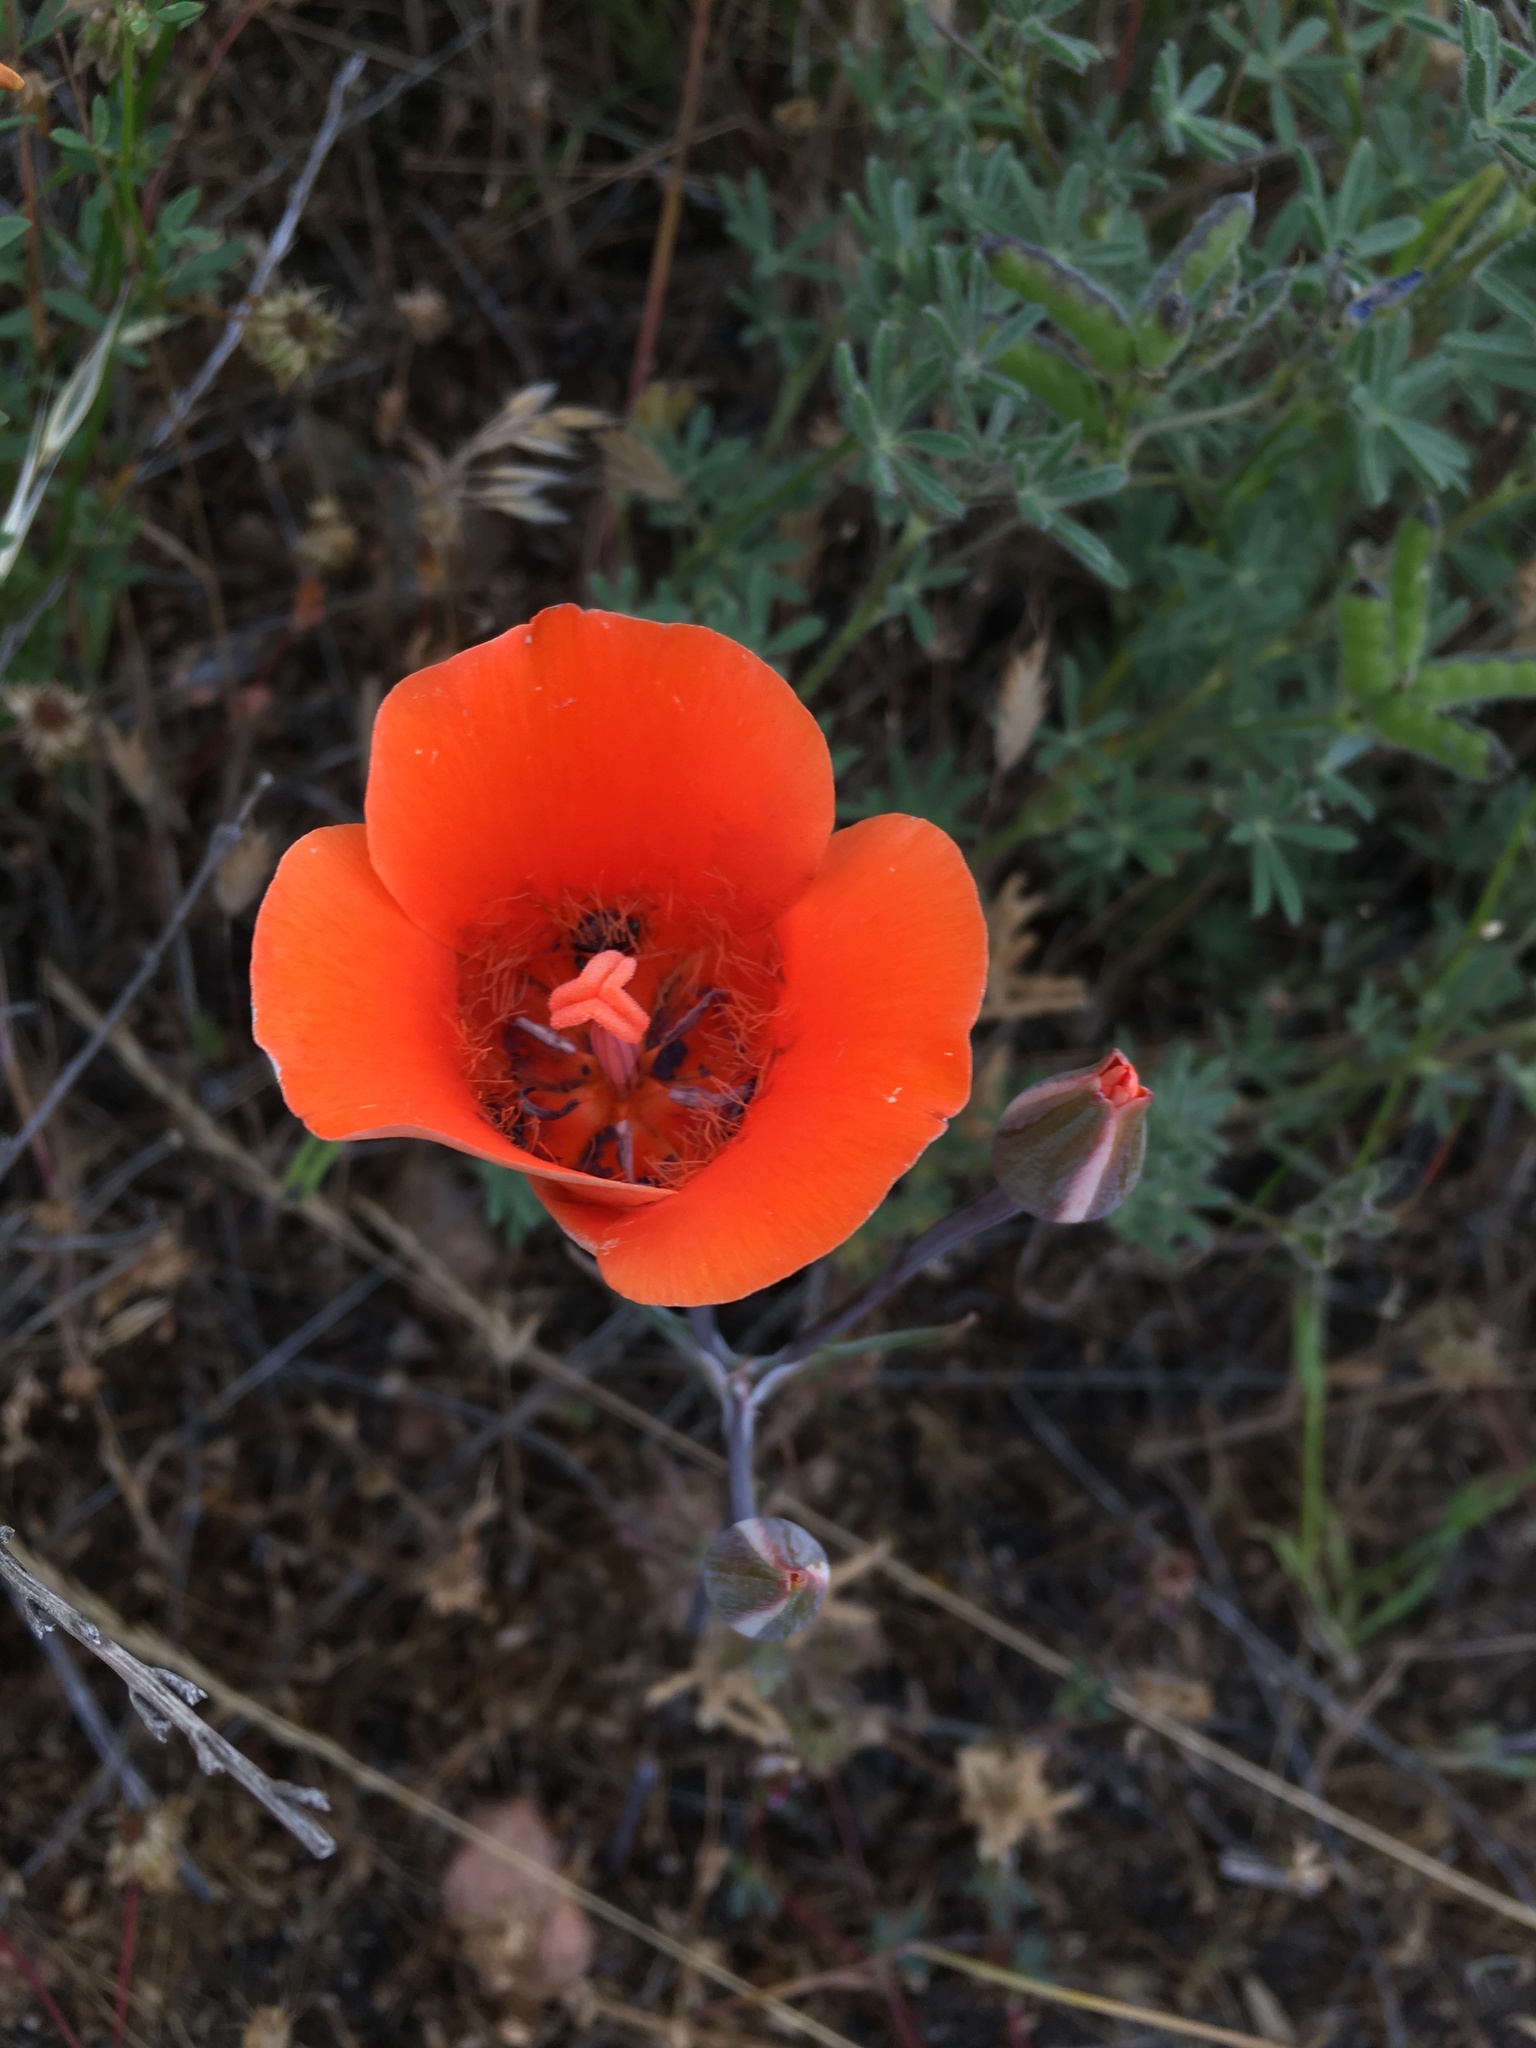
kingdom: Plantae
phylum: Tracheophyta
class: Liliopsida
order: Liliales
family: Liliaceae
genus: Calochortus
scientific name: Calochortus kennedyi
